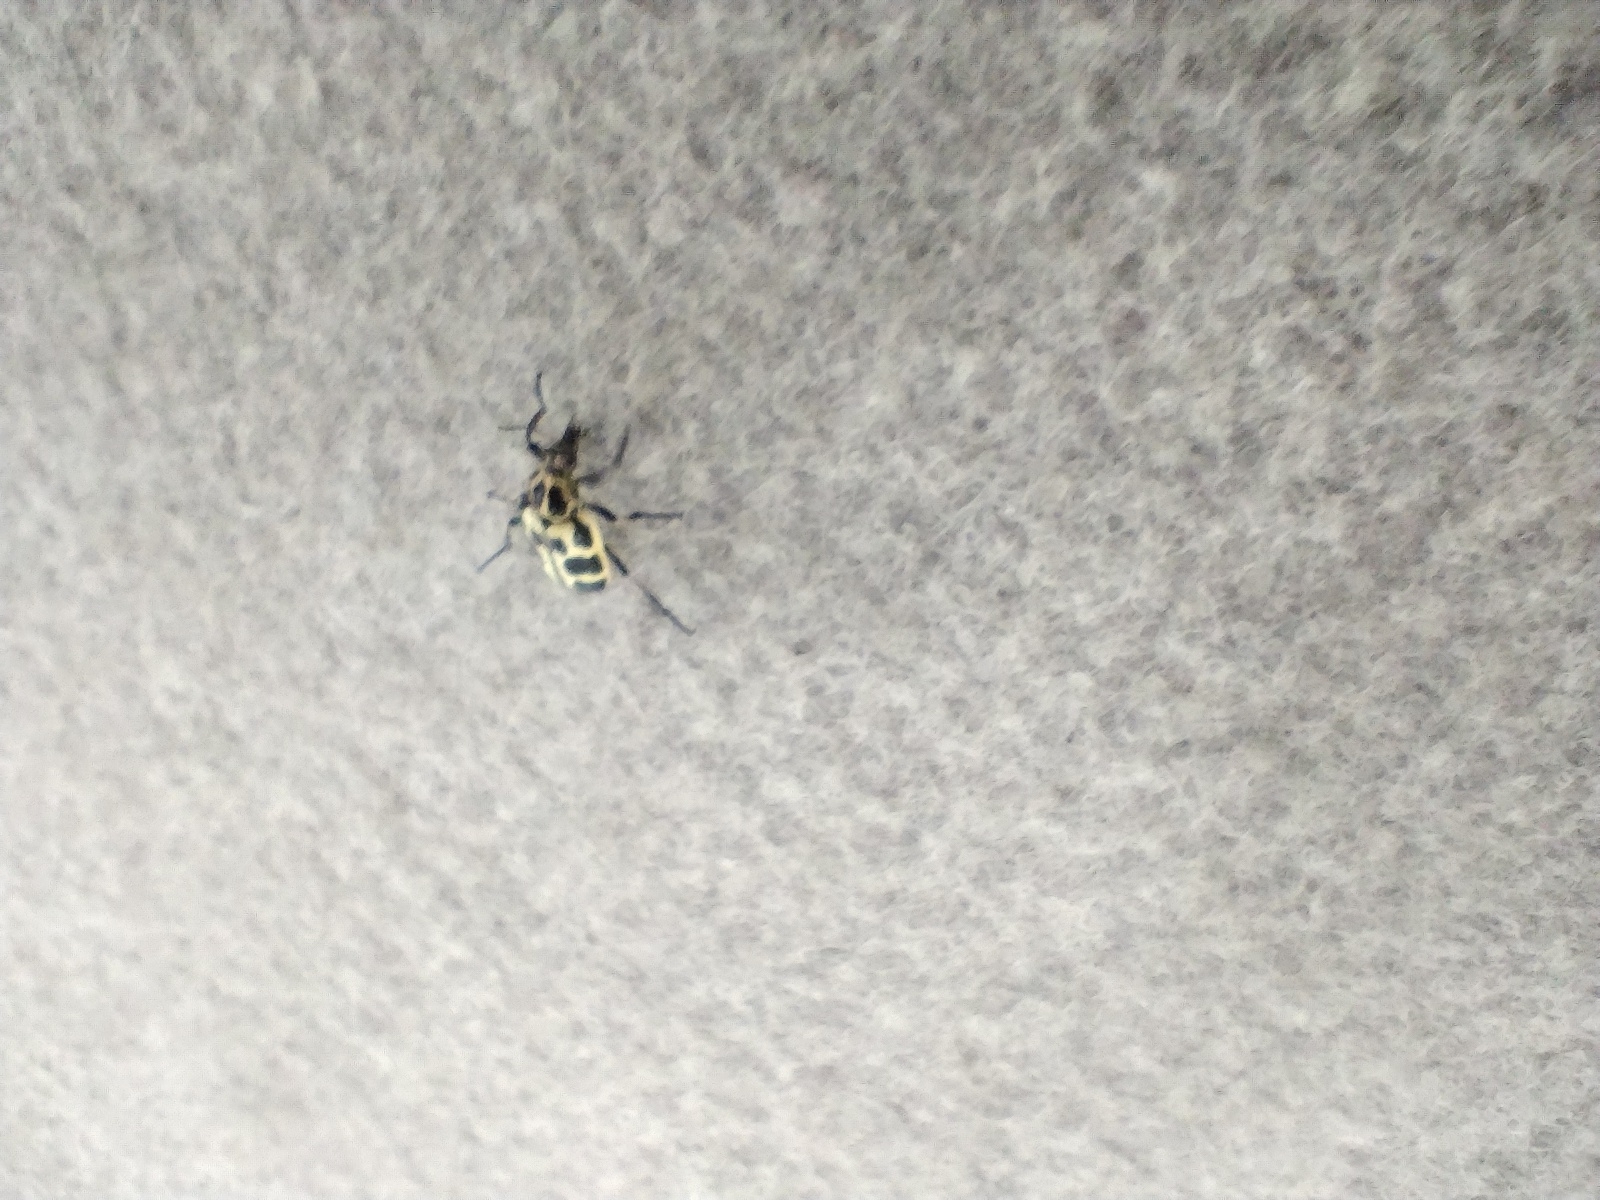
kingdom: Animalia
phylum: Arthropoda
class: Insecta
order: Coleoptera
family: Melyridae
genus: Astylus
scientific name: Astylus atromaculatus
